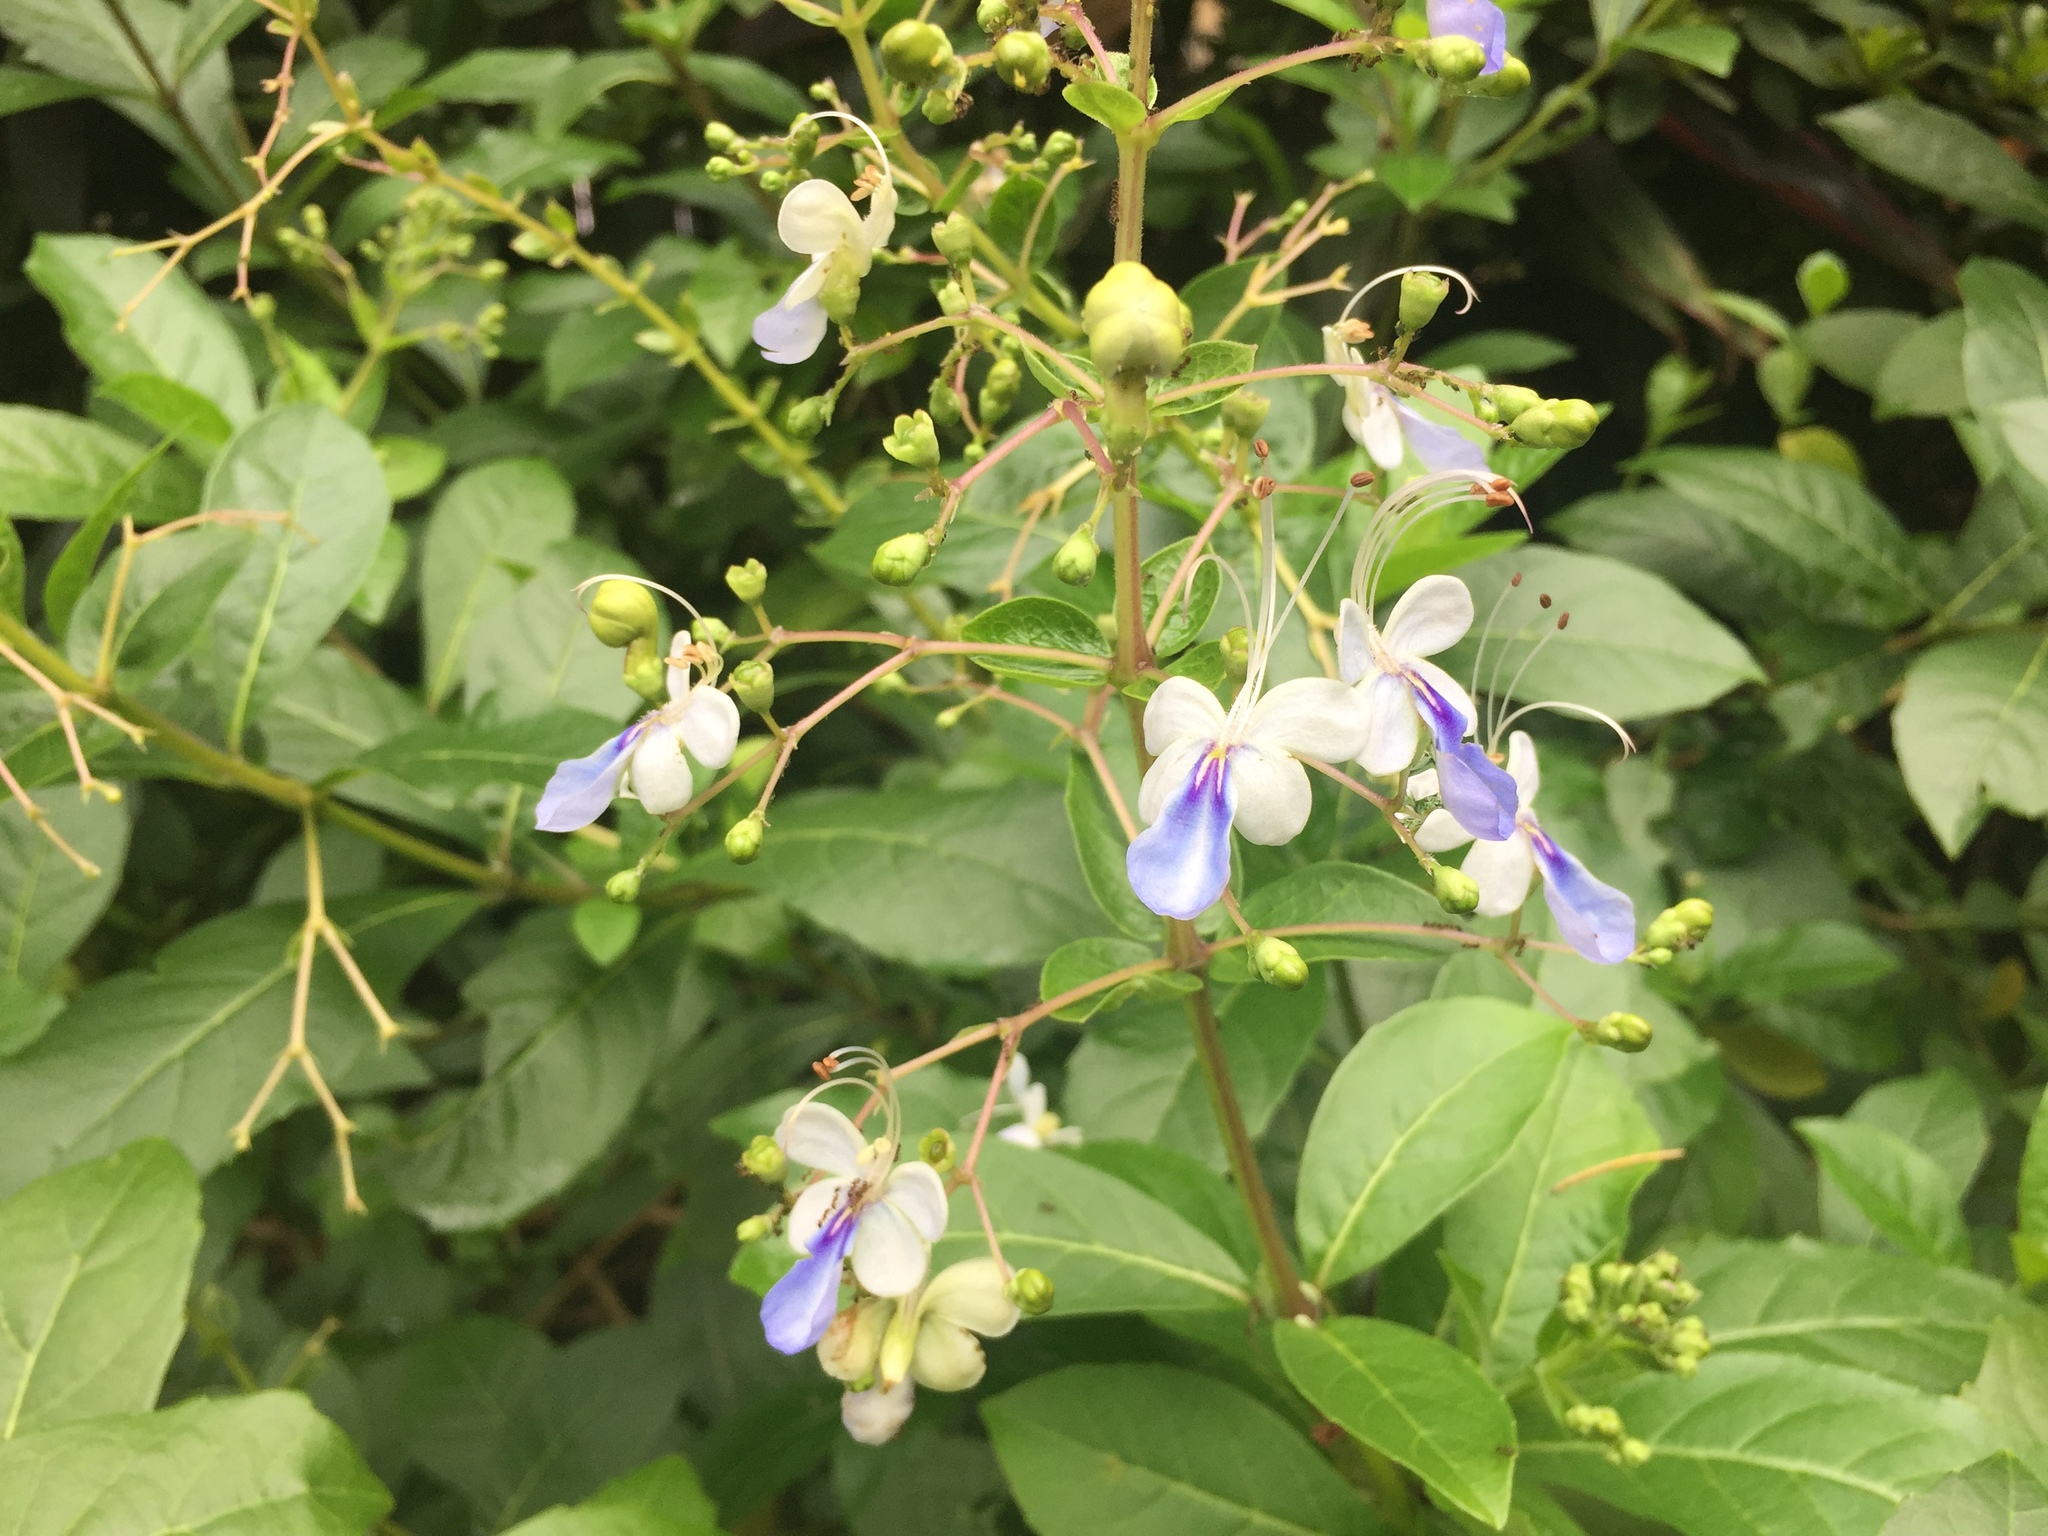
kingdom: Plantae
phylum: Tracheophyta
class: Magnoliopsida
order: Lamiales
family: Lamiaceae
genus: Rotheca
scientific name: Rotheca myricoides
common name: Cats-whiskers
